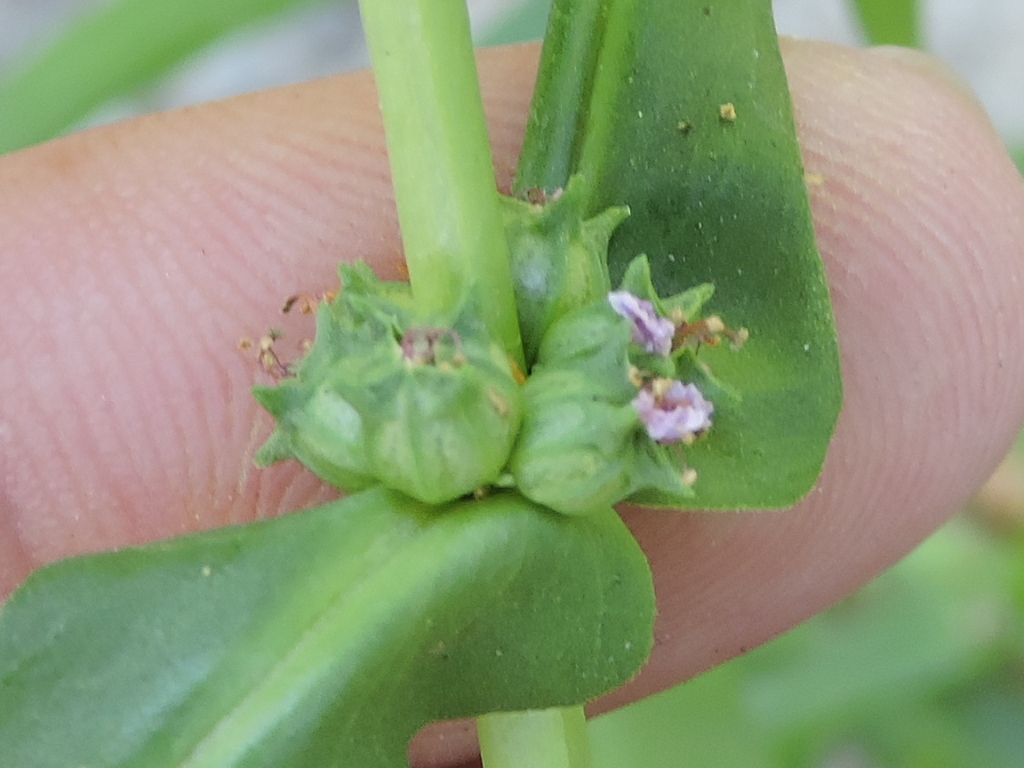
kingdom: Plantae
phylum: Tracheophyta
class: Magnoliopsida
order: Myrtales
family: Lythraceae
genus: Ammannia
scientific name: Ammannia coccinea
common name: Valley redstem
